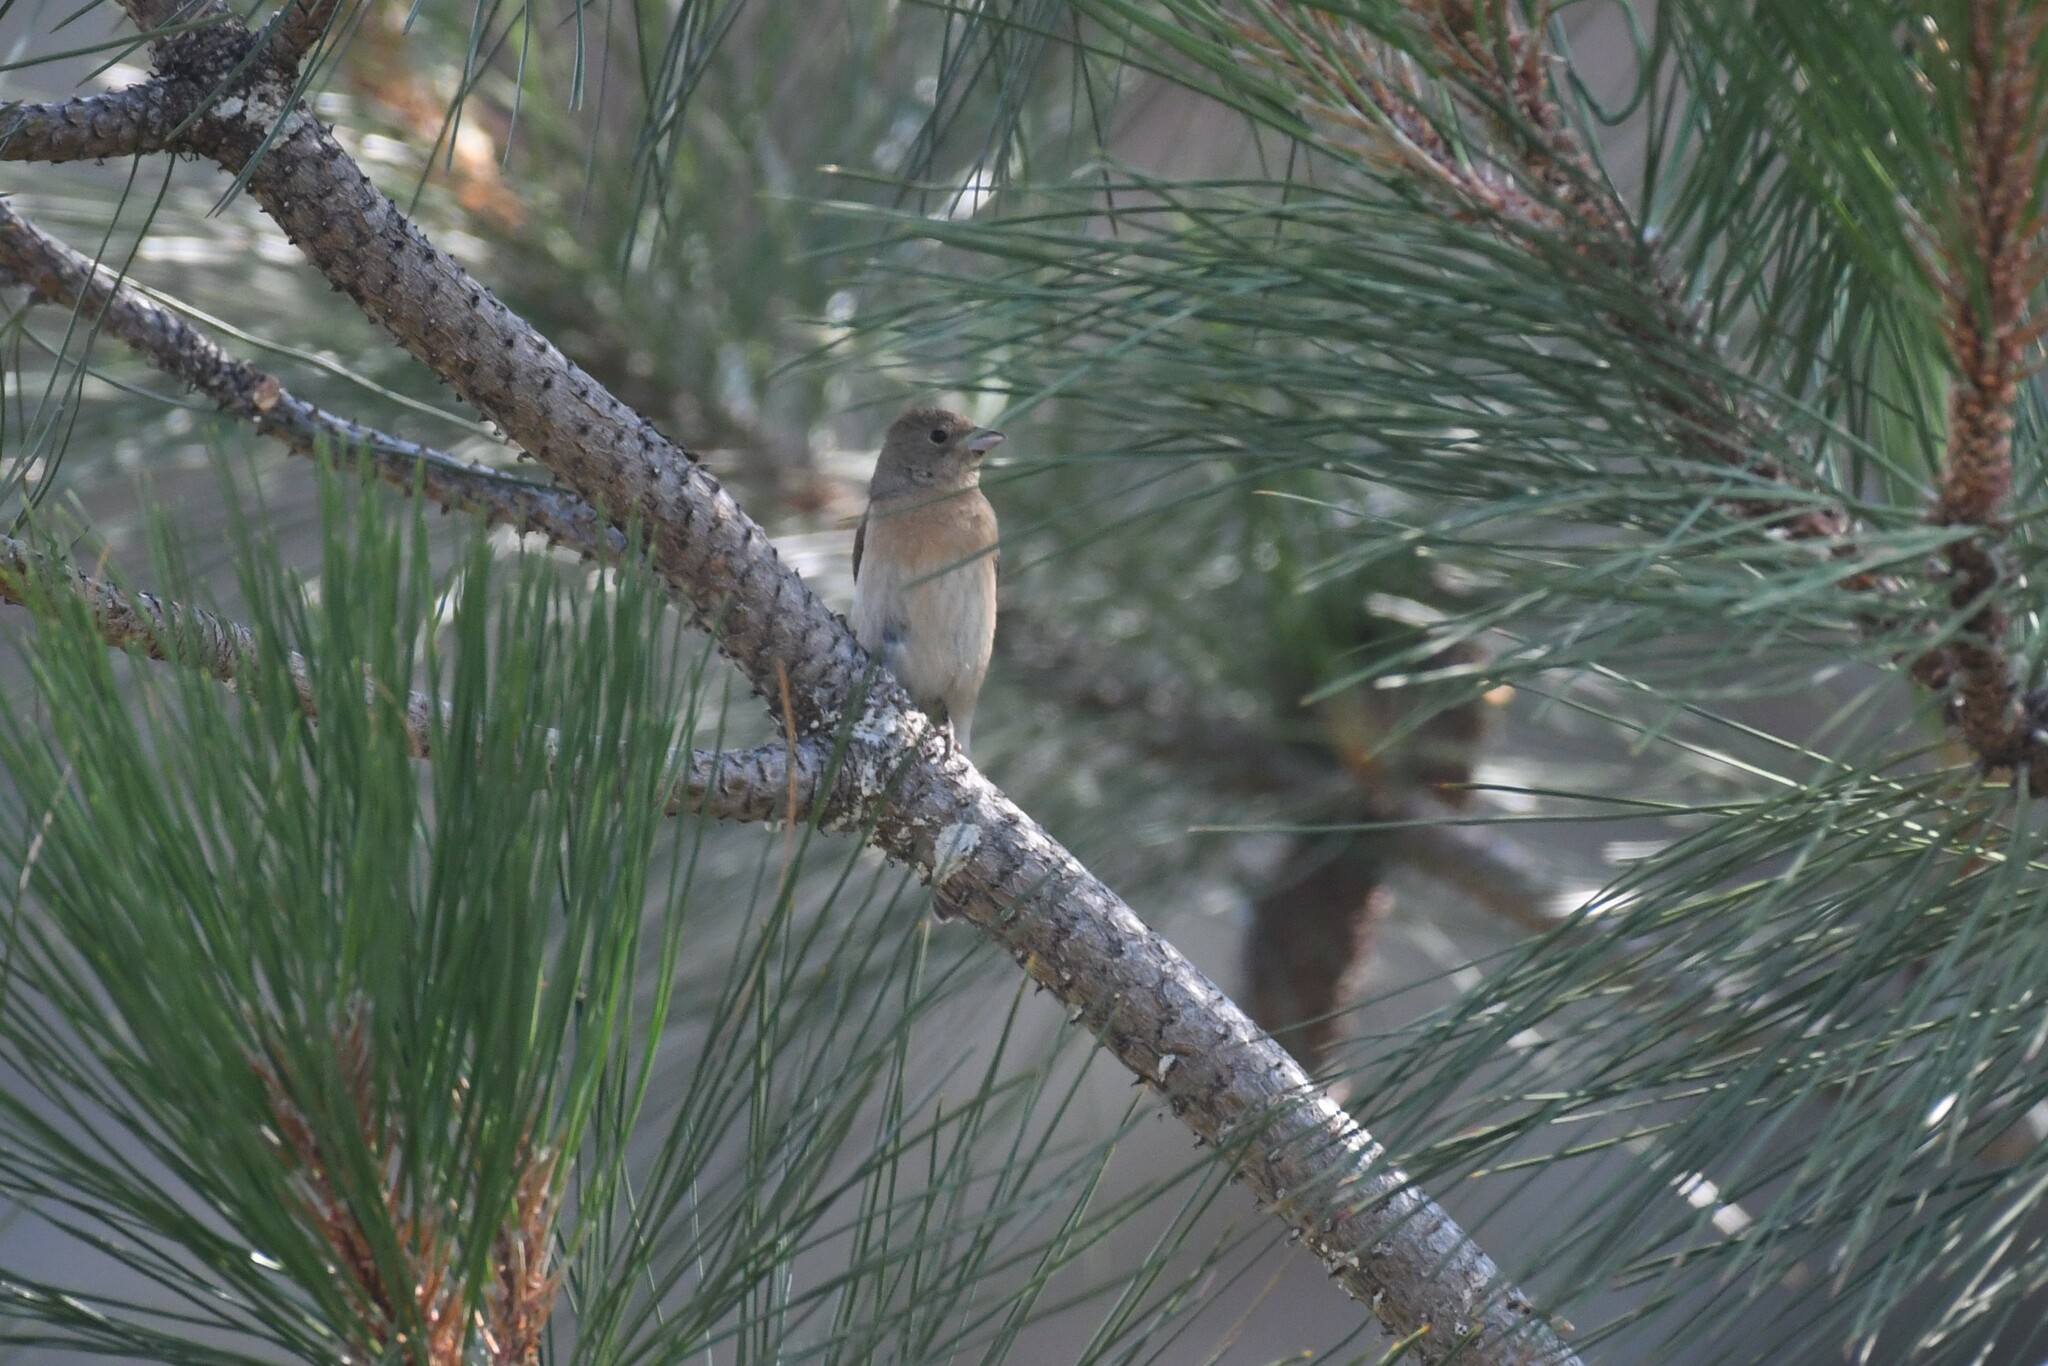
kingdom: Animalia
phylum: Chordata
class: Aves
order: Passeriformes
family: Cardinalidae
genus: Passerina
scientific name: Passerina amoena
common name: Lazuli bunting
